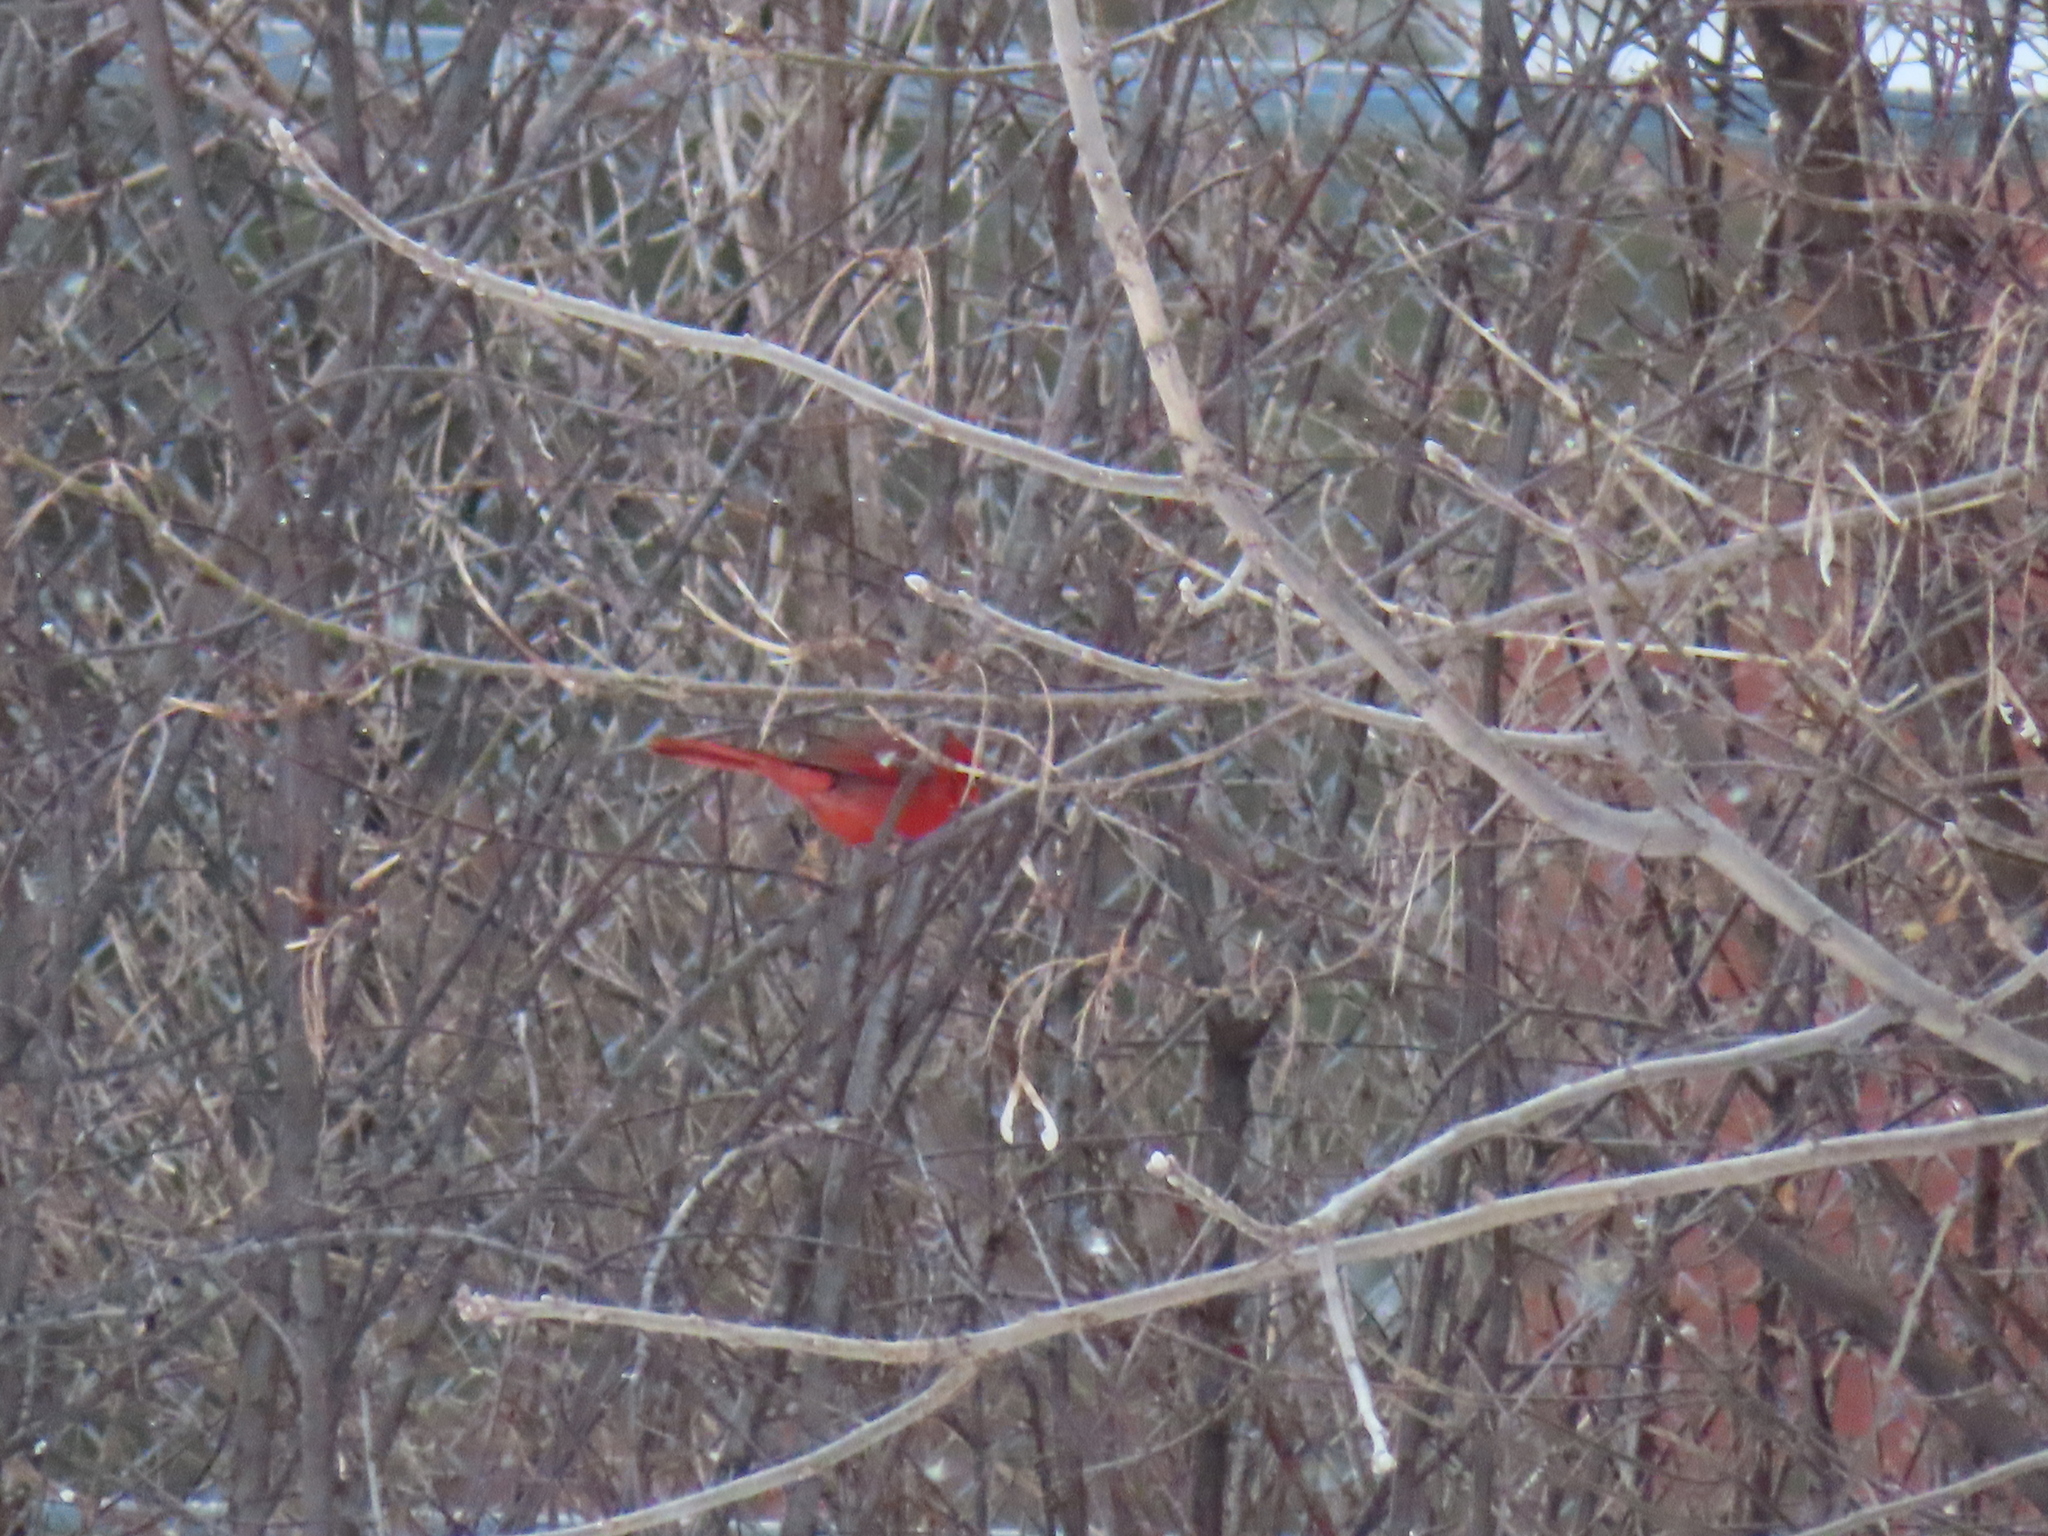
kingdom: Animalia
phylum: Chordata
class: Aves
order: Passeriformes
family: Cardinalidae
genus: Cardinalis
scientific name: Cardinalis cardinalis
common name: Northern cardinal
